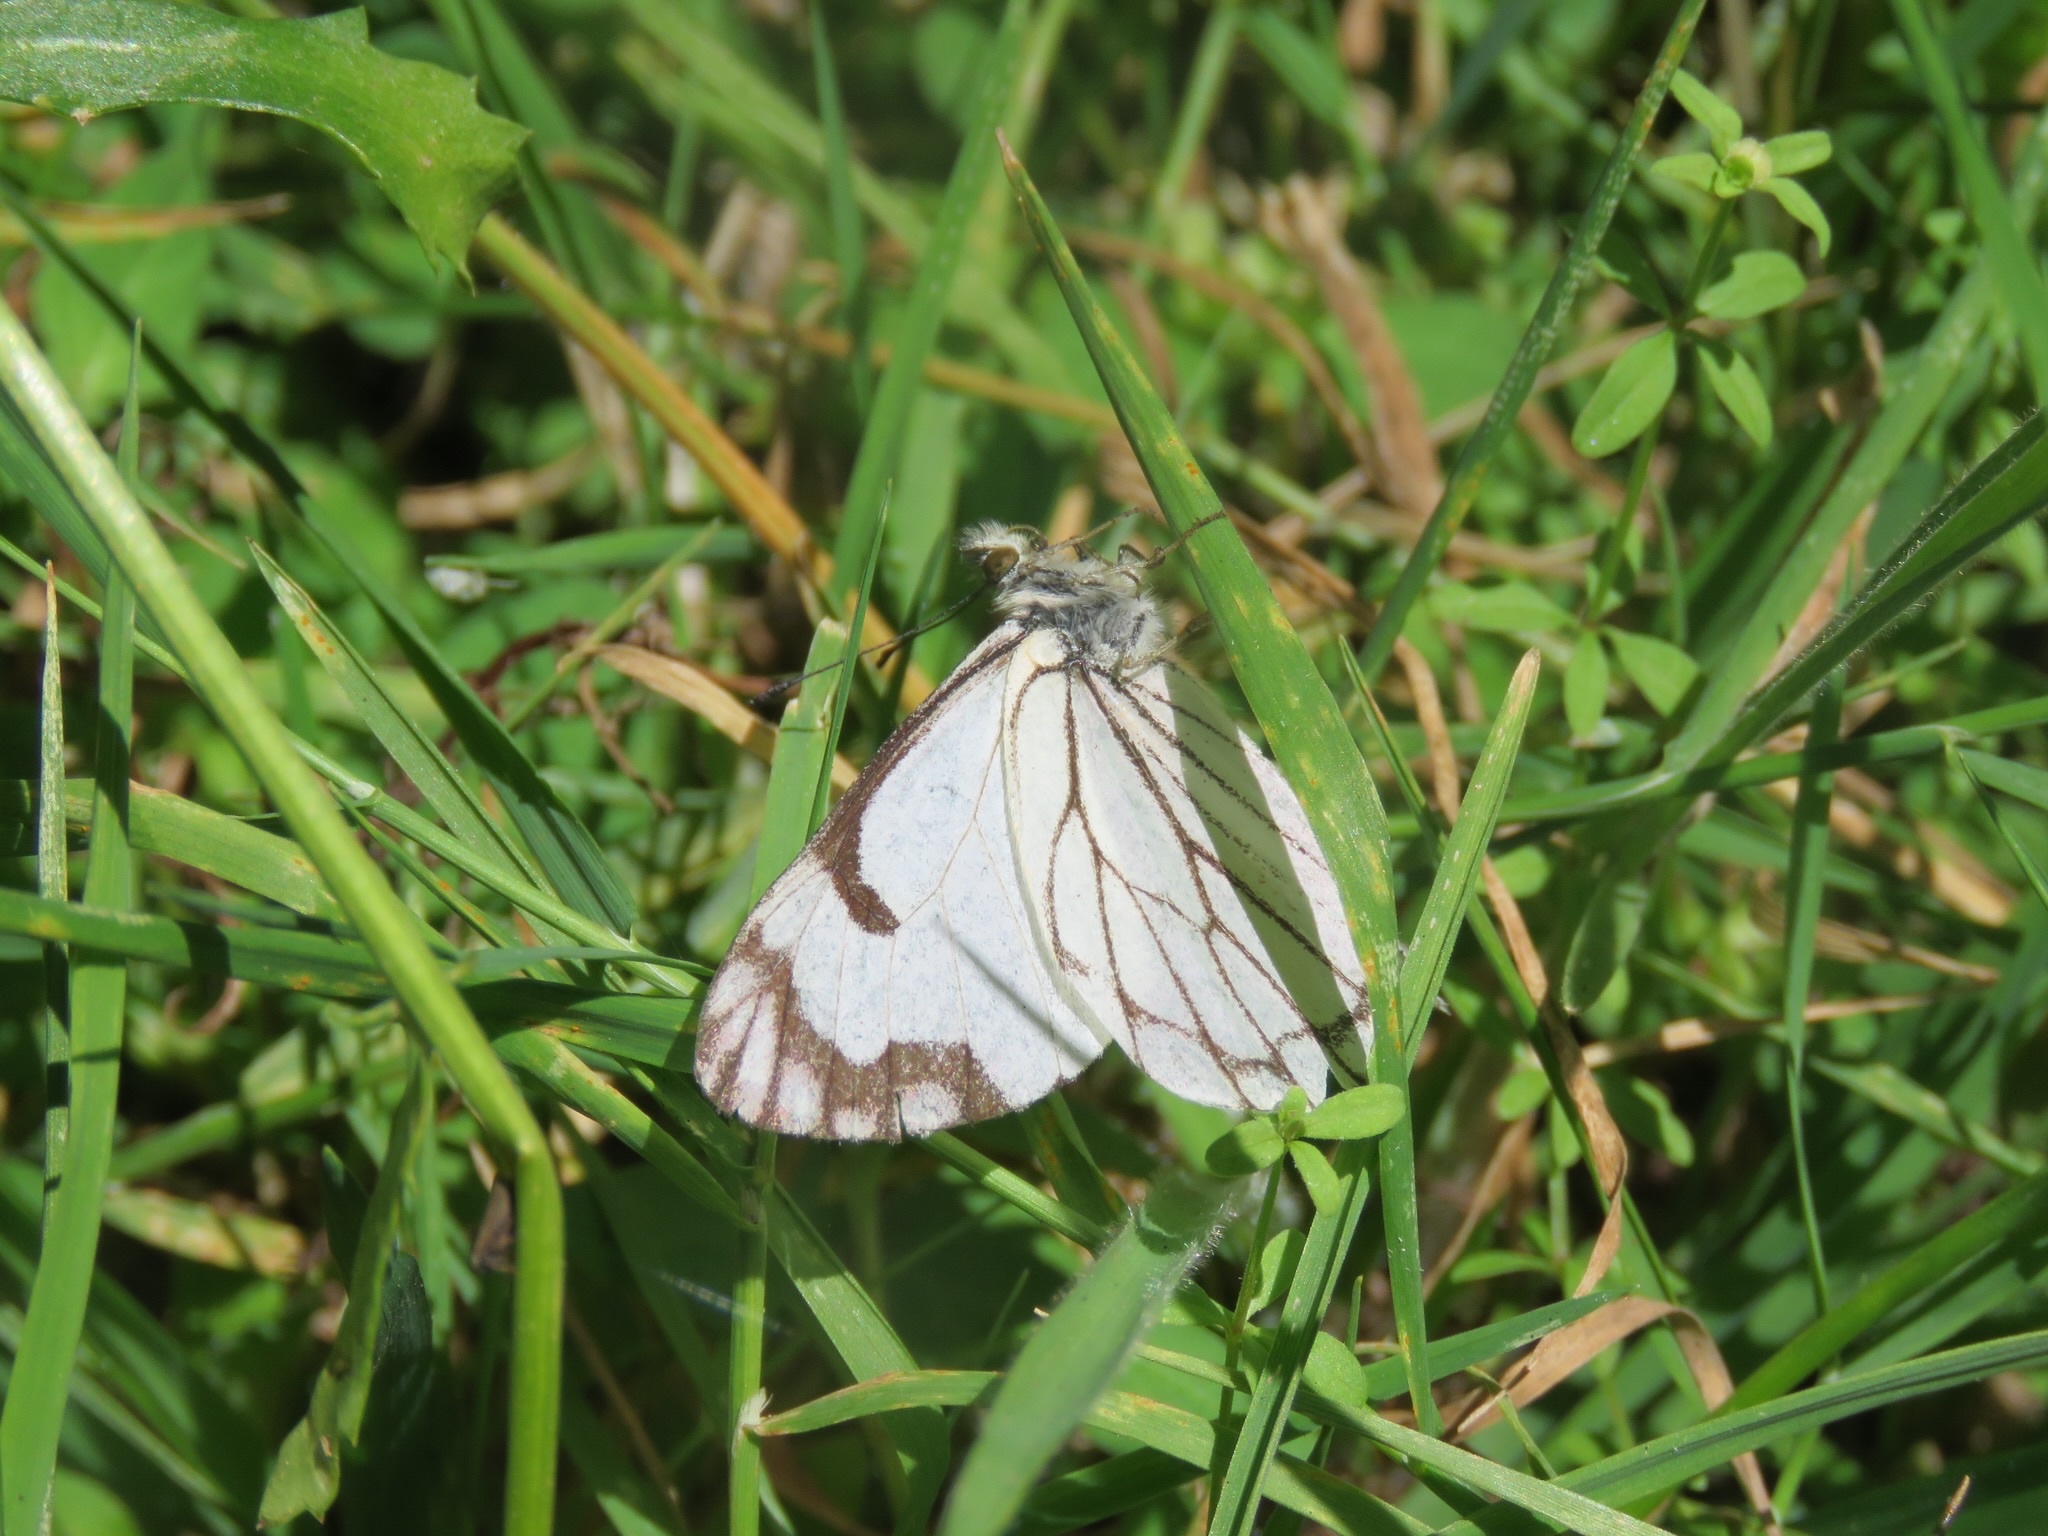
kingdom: Animalia
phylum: Arthropoda
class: Insecta
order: Lepidoptera
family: Pieridae
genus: Neophasia
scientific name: Neophasia menapia
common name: Pine white
